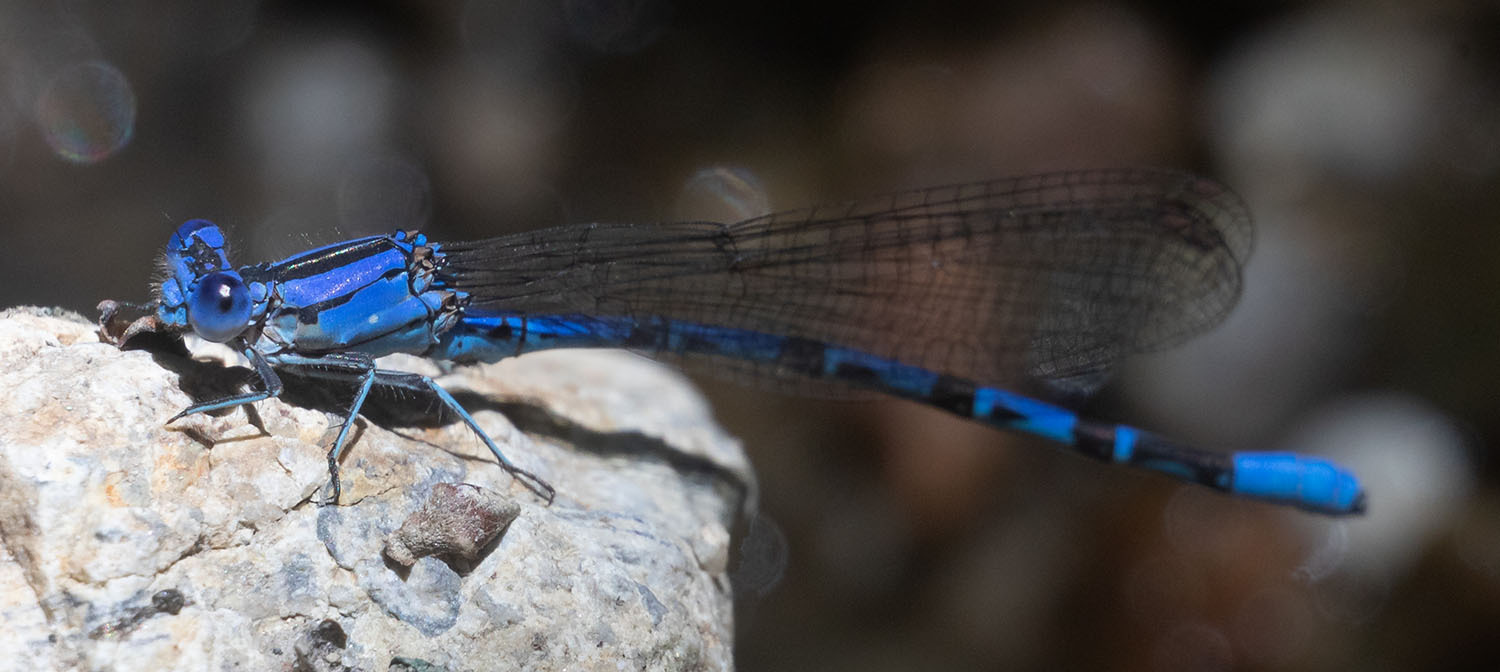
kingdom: Animalia
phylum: Arthropoda
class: Insecta
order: Odonata
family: Coenagrionidae
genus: Argia
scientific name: Argia vivida
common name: Vivid dancer
